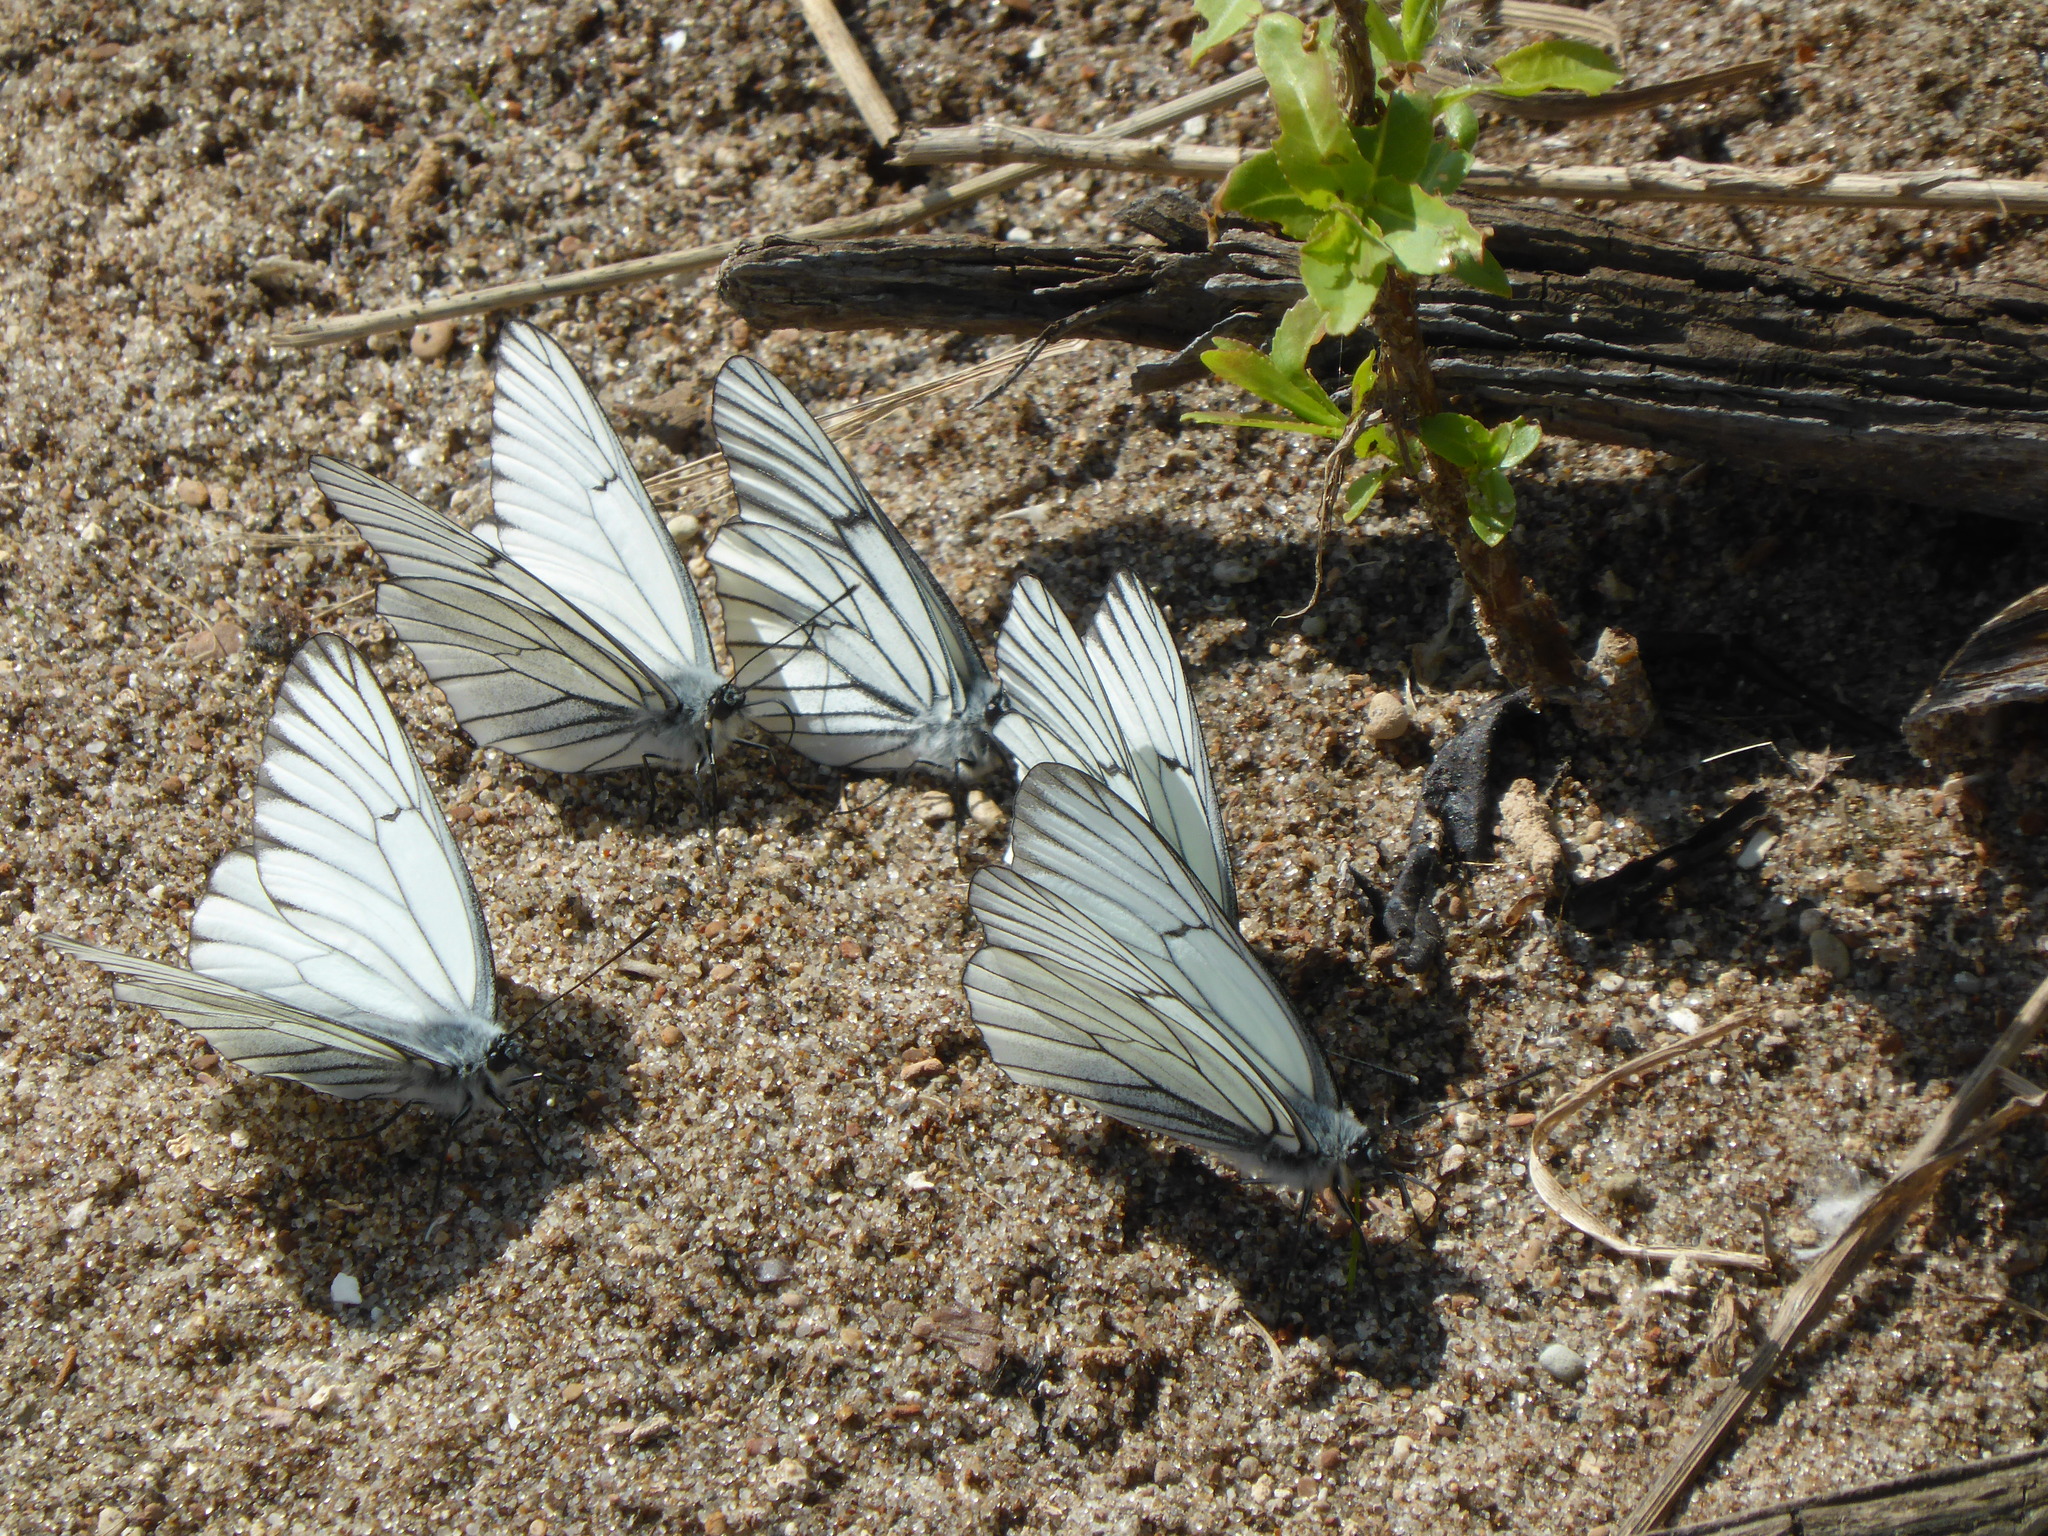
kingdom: Animalia
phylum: Arthropoda
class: Insecta
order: Lepidoptera
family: Pieridae
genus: Aporia
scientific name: Aporia crataegi
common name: Black-veined white
